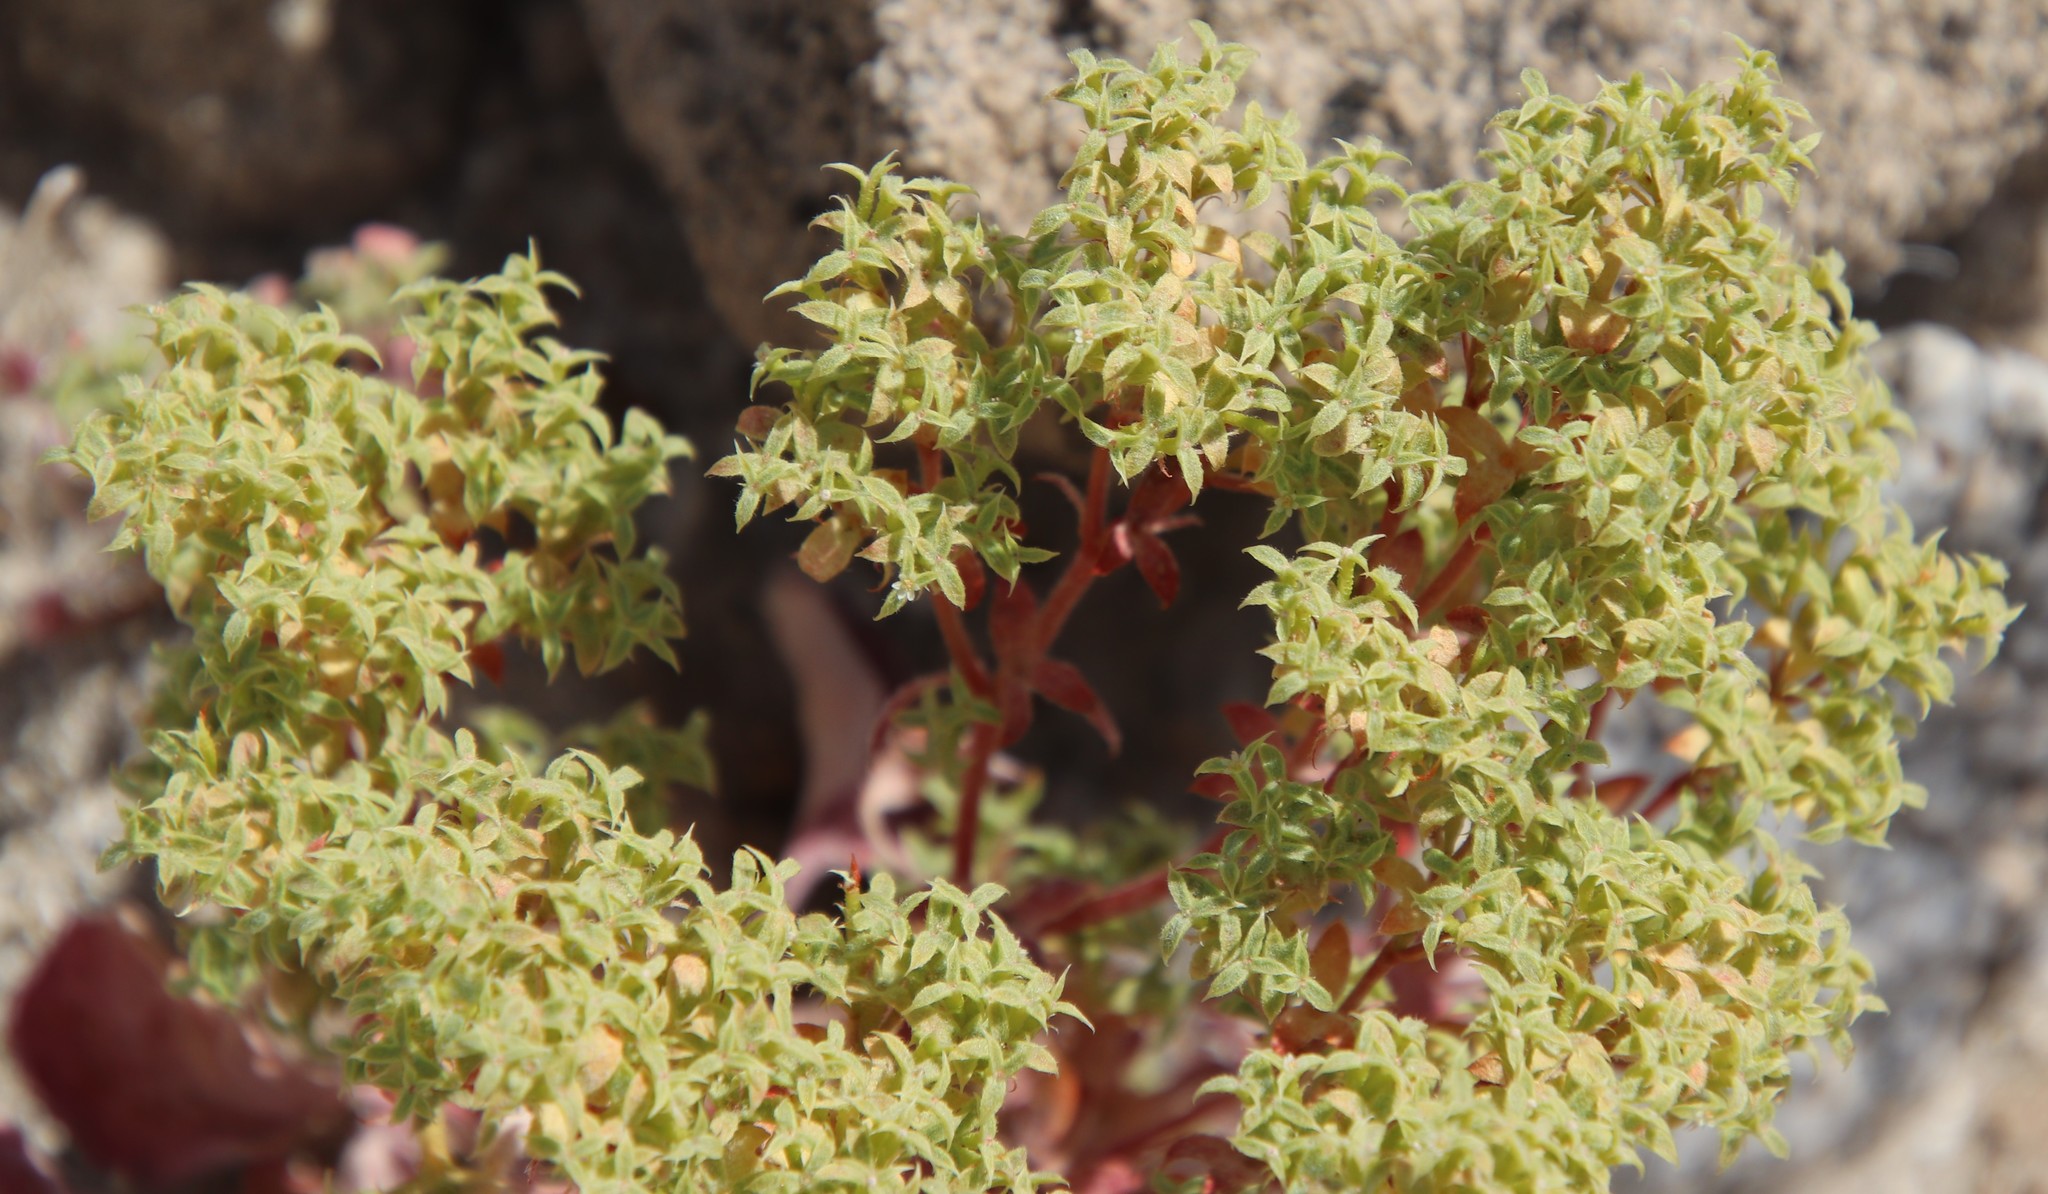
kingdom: Plantae
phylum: Tracheophyta
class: Magnoliopsida
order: Caryophyllales
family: Polygonaceae
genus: Chorizanthe
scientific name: Chorizanthe corrugata
